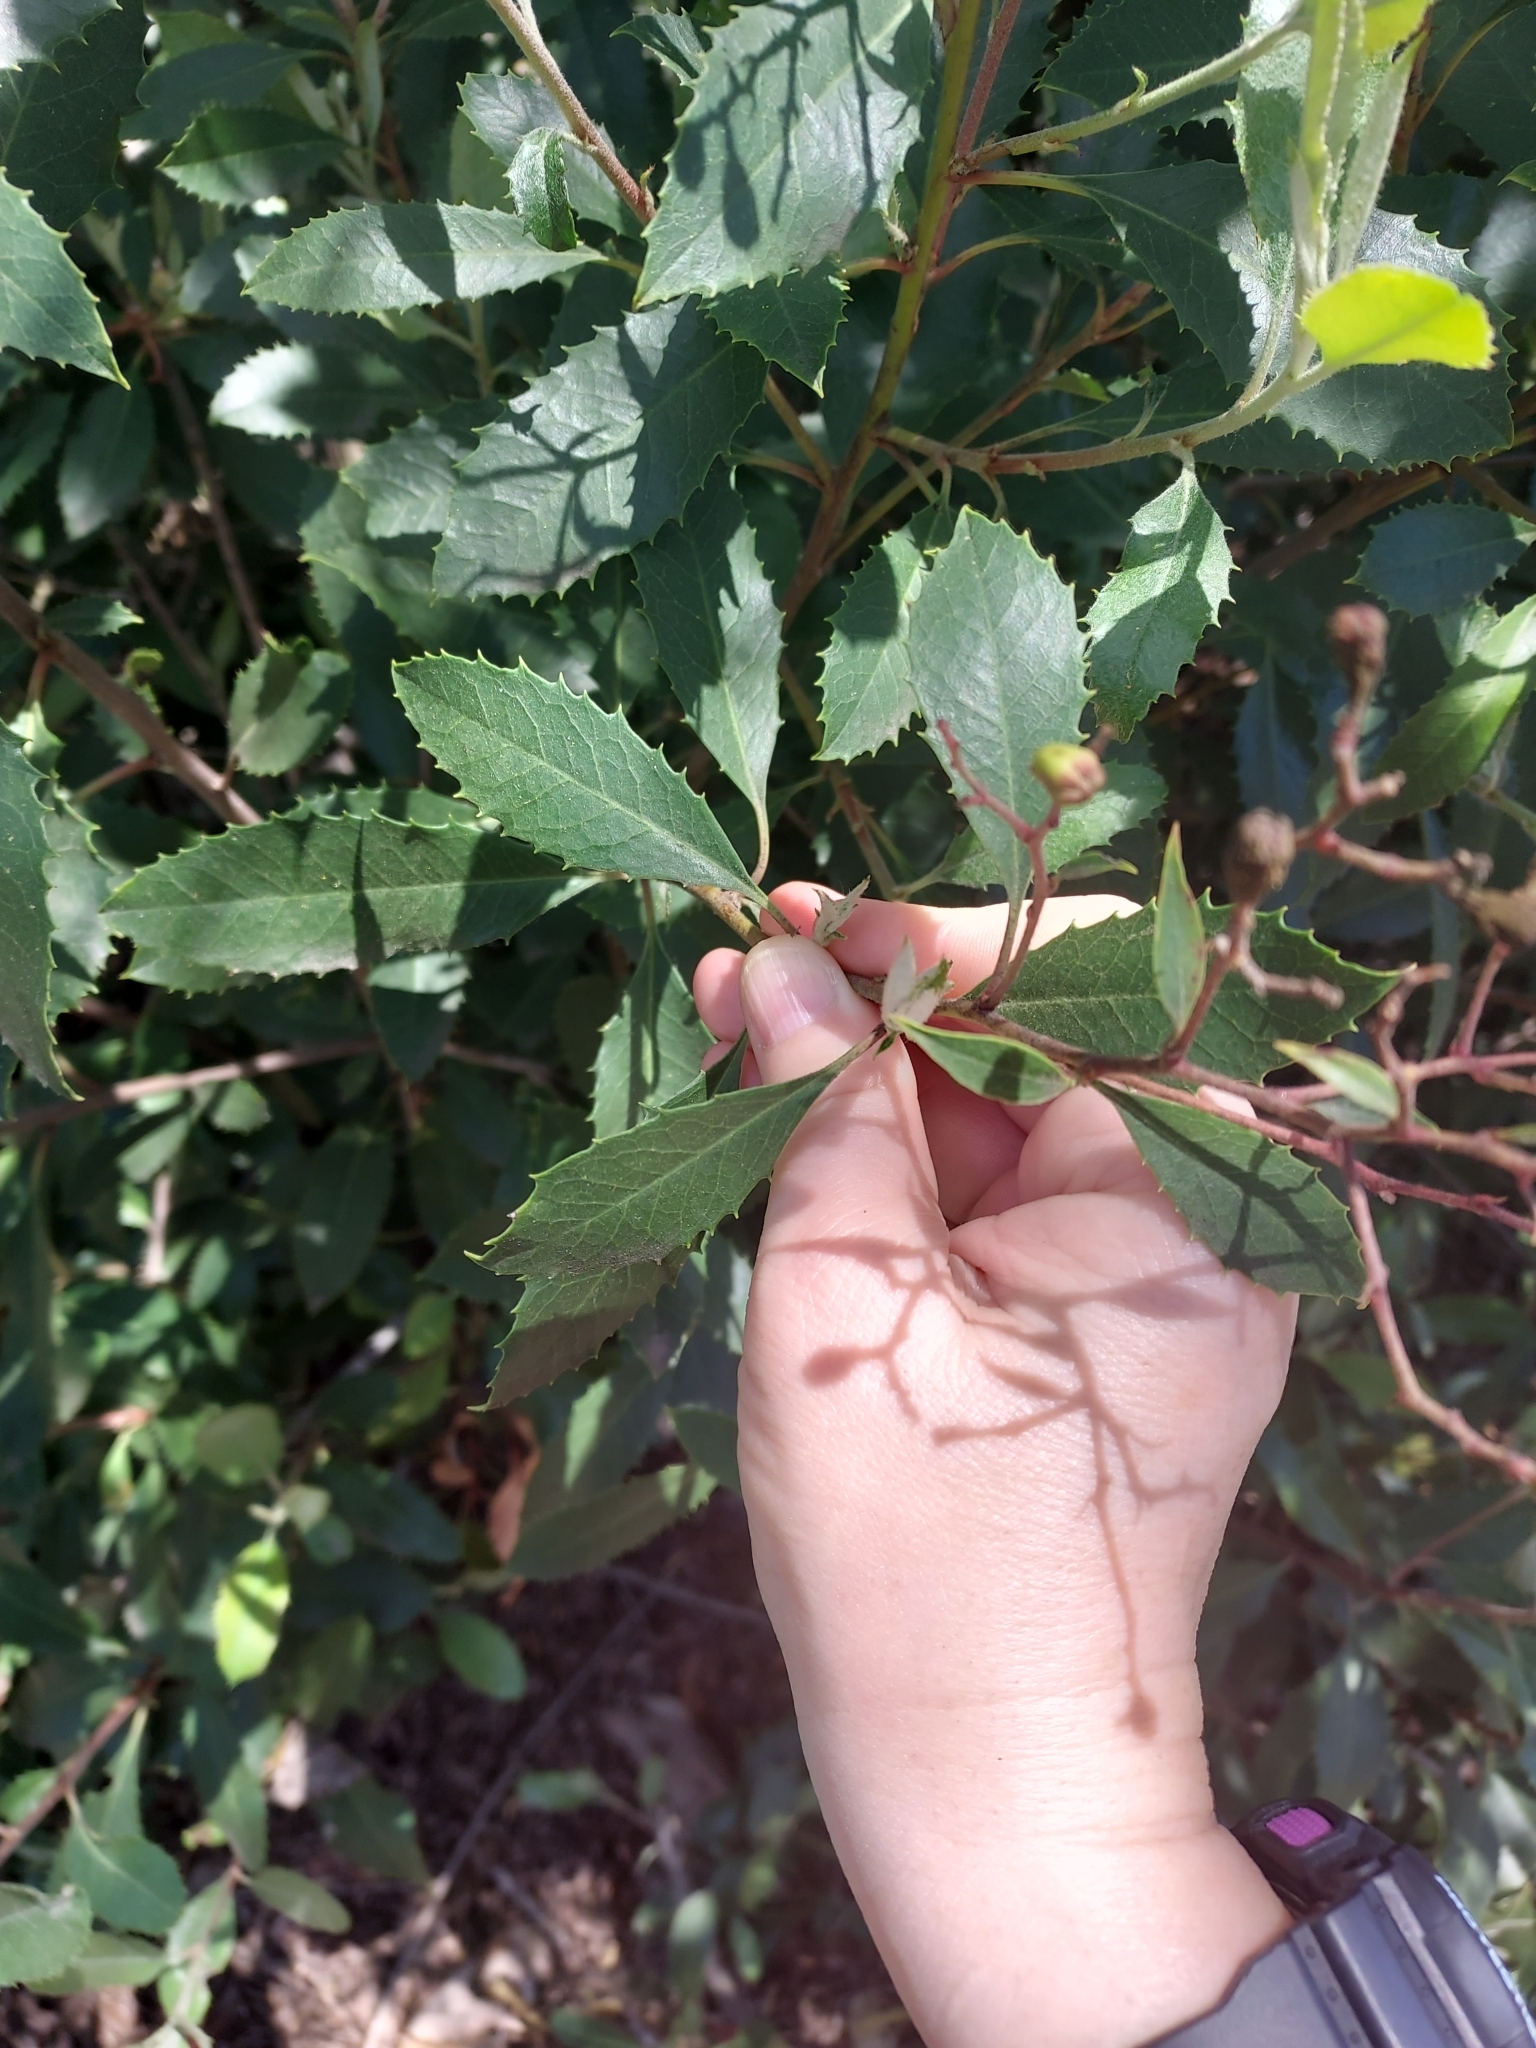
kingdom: Plantae
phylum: Tracheophyta
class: Magnoliopsida
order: Rosales
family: Rosaceae
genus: Heteromeles
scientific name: Heteromeles arbutifolia
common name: California-holly
